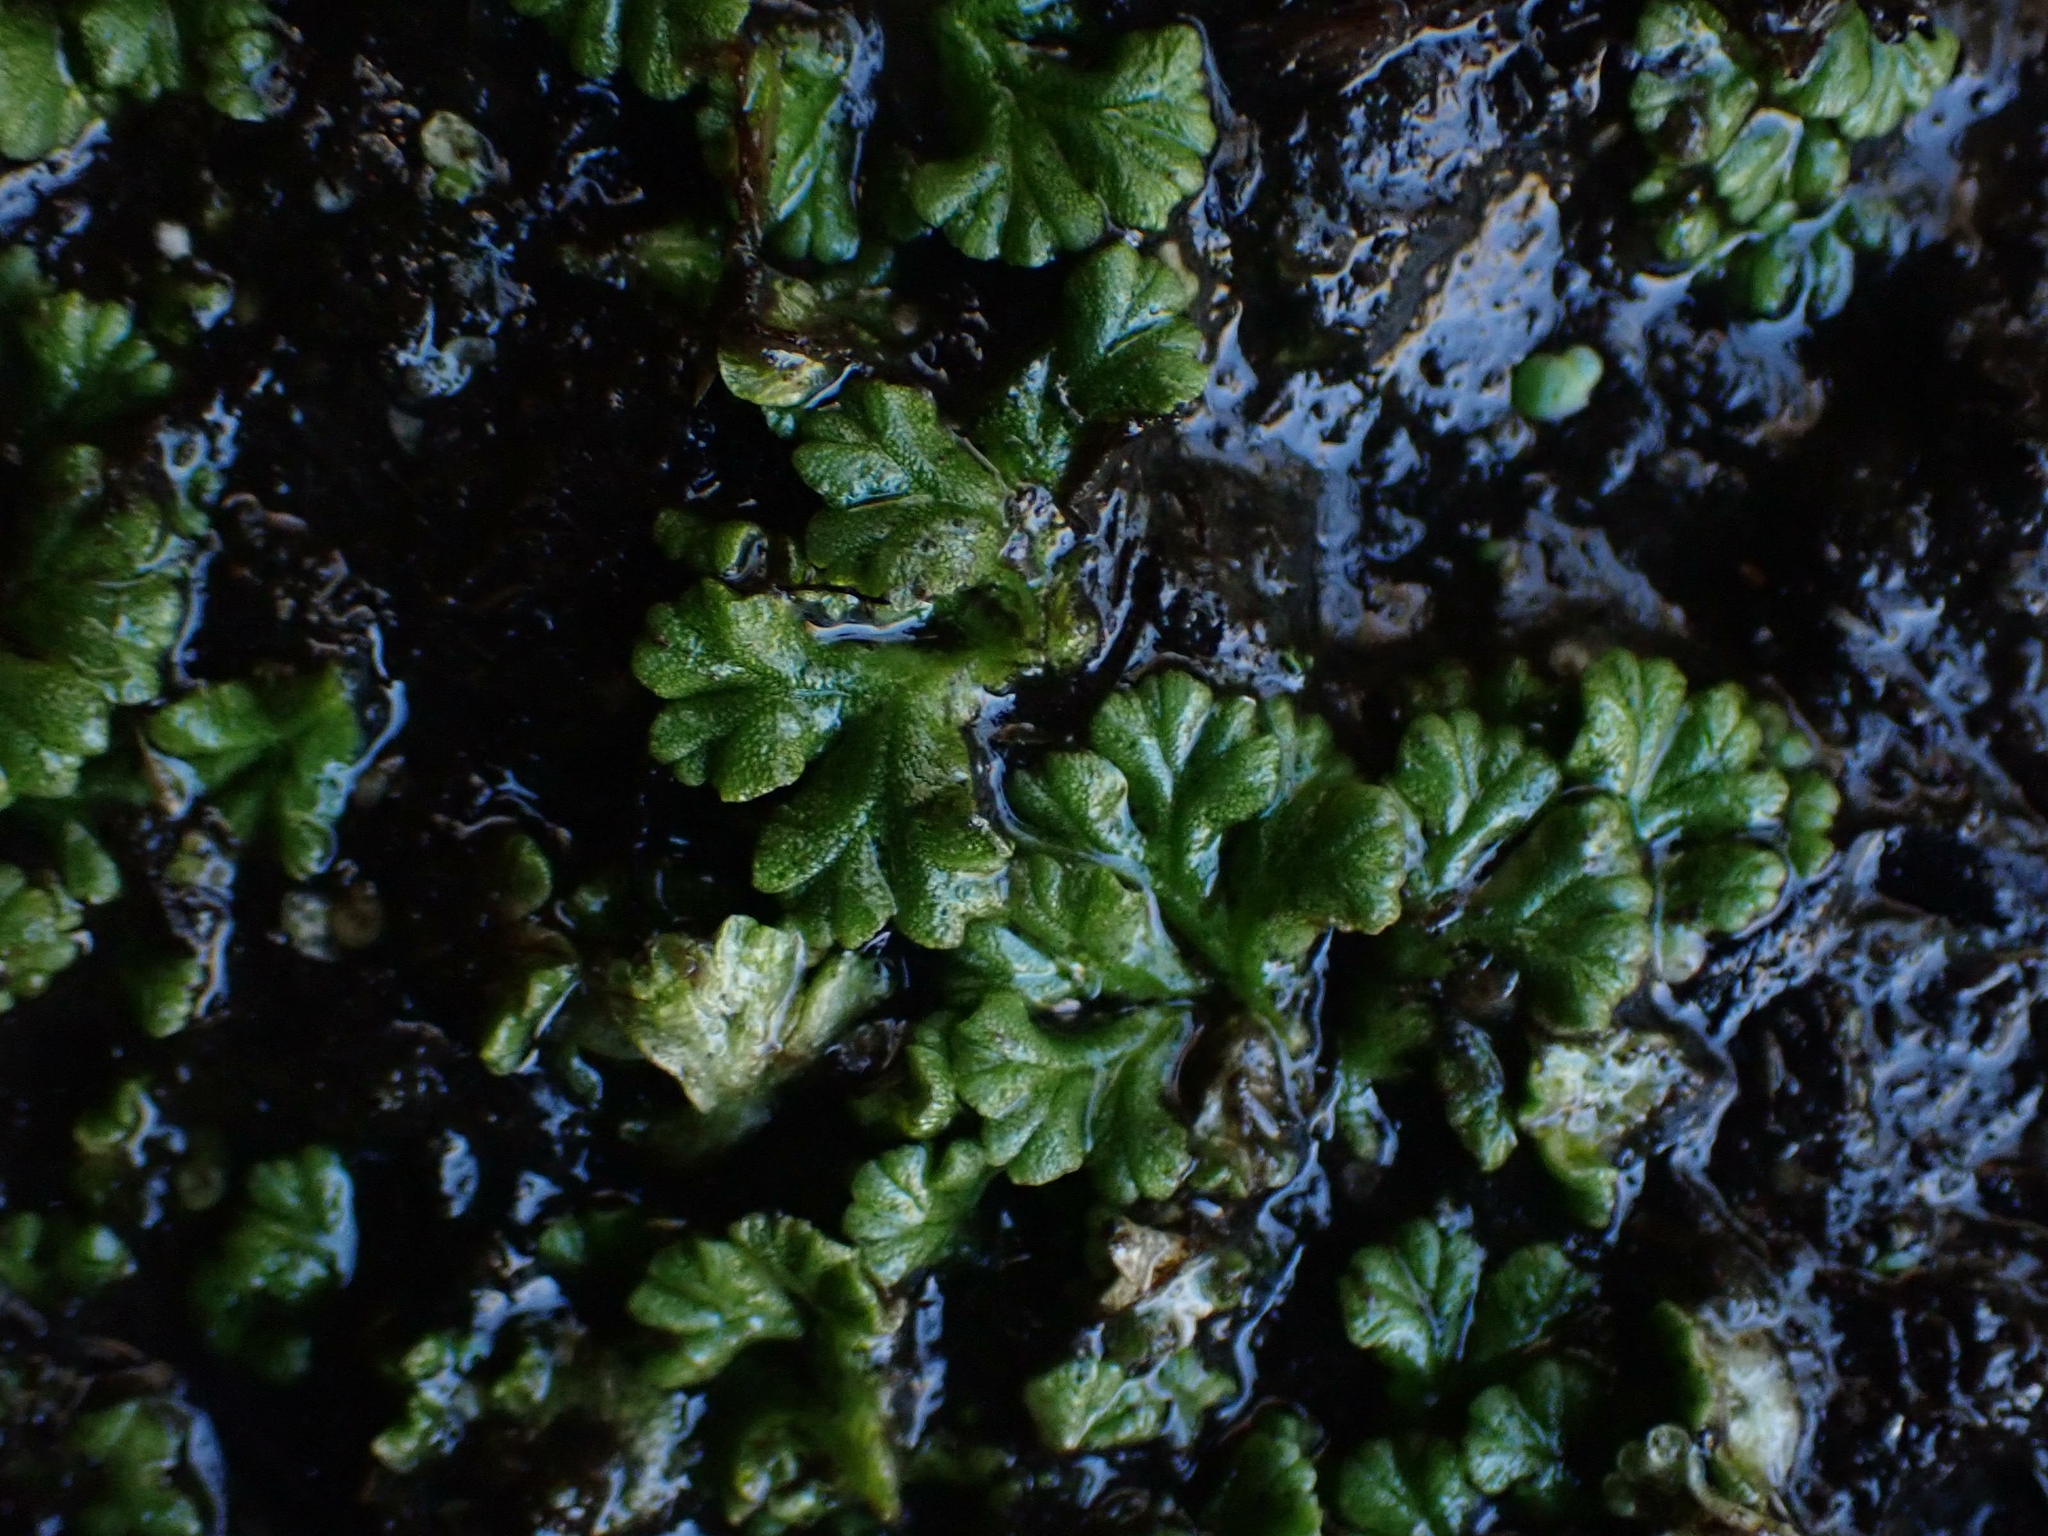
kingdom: Plantae
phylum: Marchantiophyta
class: Marchantiopsida
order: Marchantiales
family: Ricciaceae
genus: Ricciocarpos
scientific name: Ricciocarpos natans
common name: Purple-fringed liverwort
